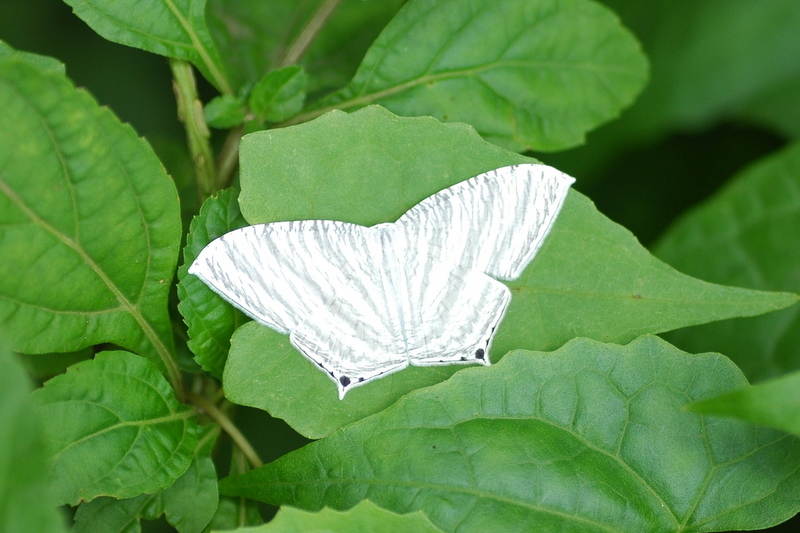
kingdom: Animalia
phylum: Arthropoda
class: Insecta
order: Lepidoptera
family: Uraniidae
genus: Micronia
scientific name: Micronia aculeata
